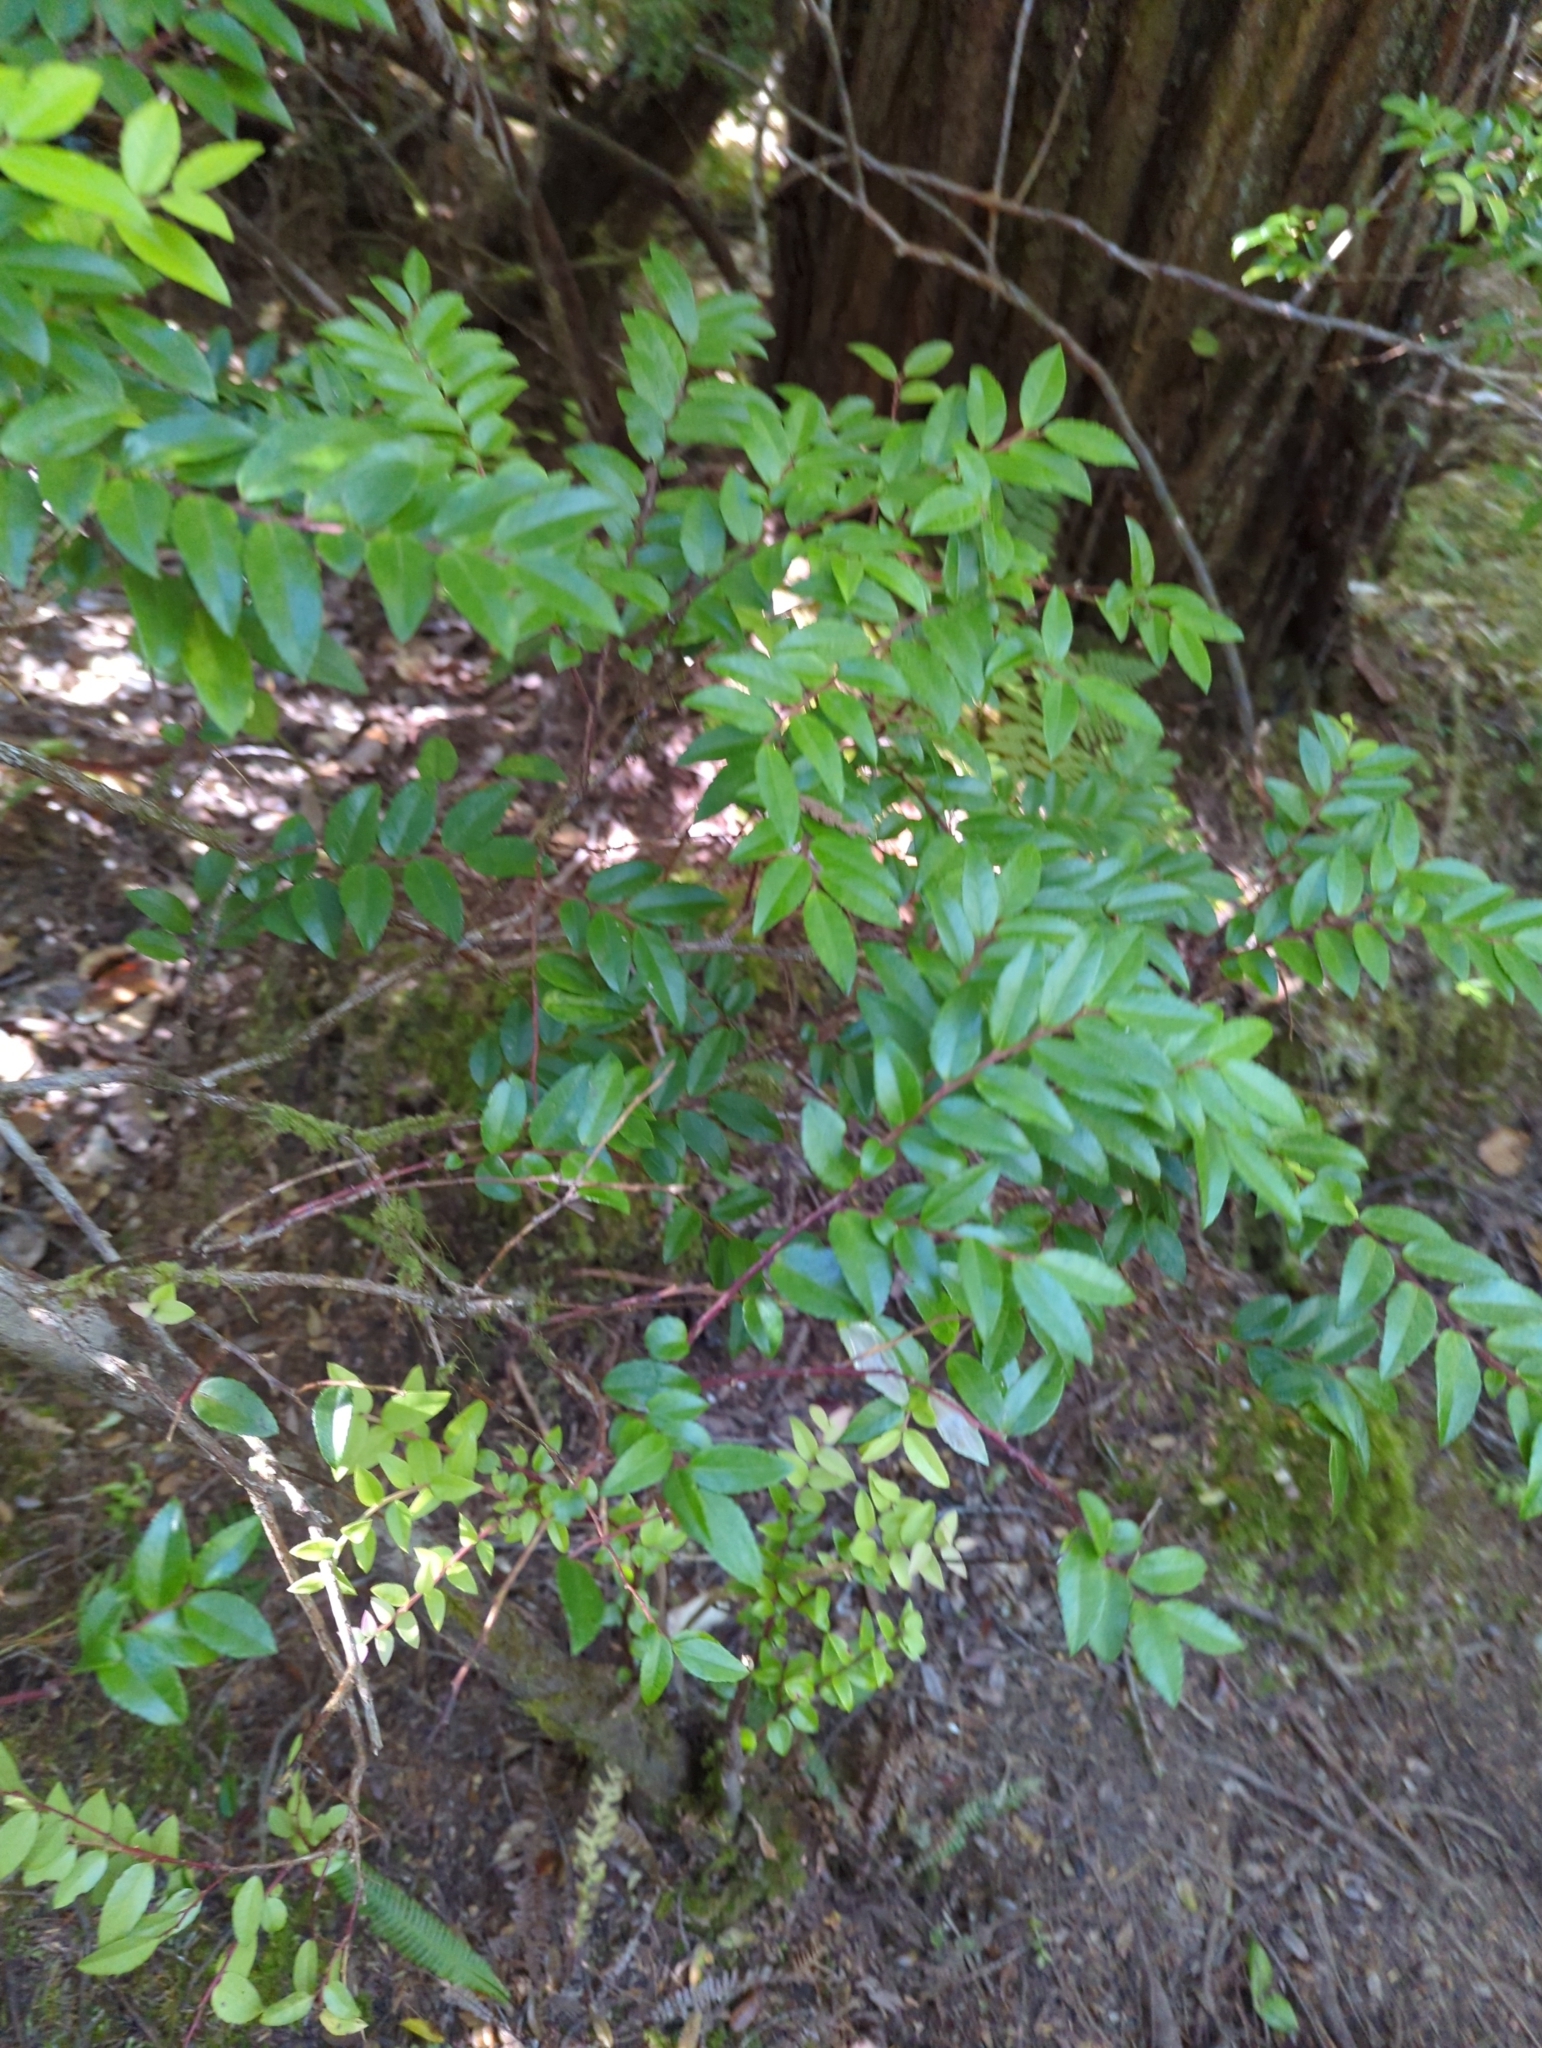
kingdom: Plantae
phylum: Tracheophyta
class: Magnoliopsida
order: Ericales
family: Ericaceae
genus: Vaccinium
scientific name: Vaccinium ovatum
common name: California-huckleberry
